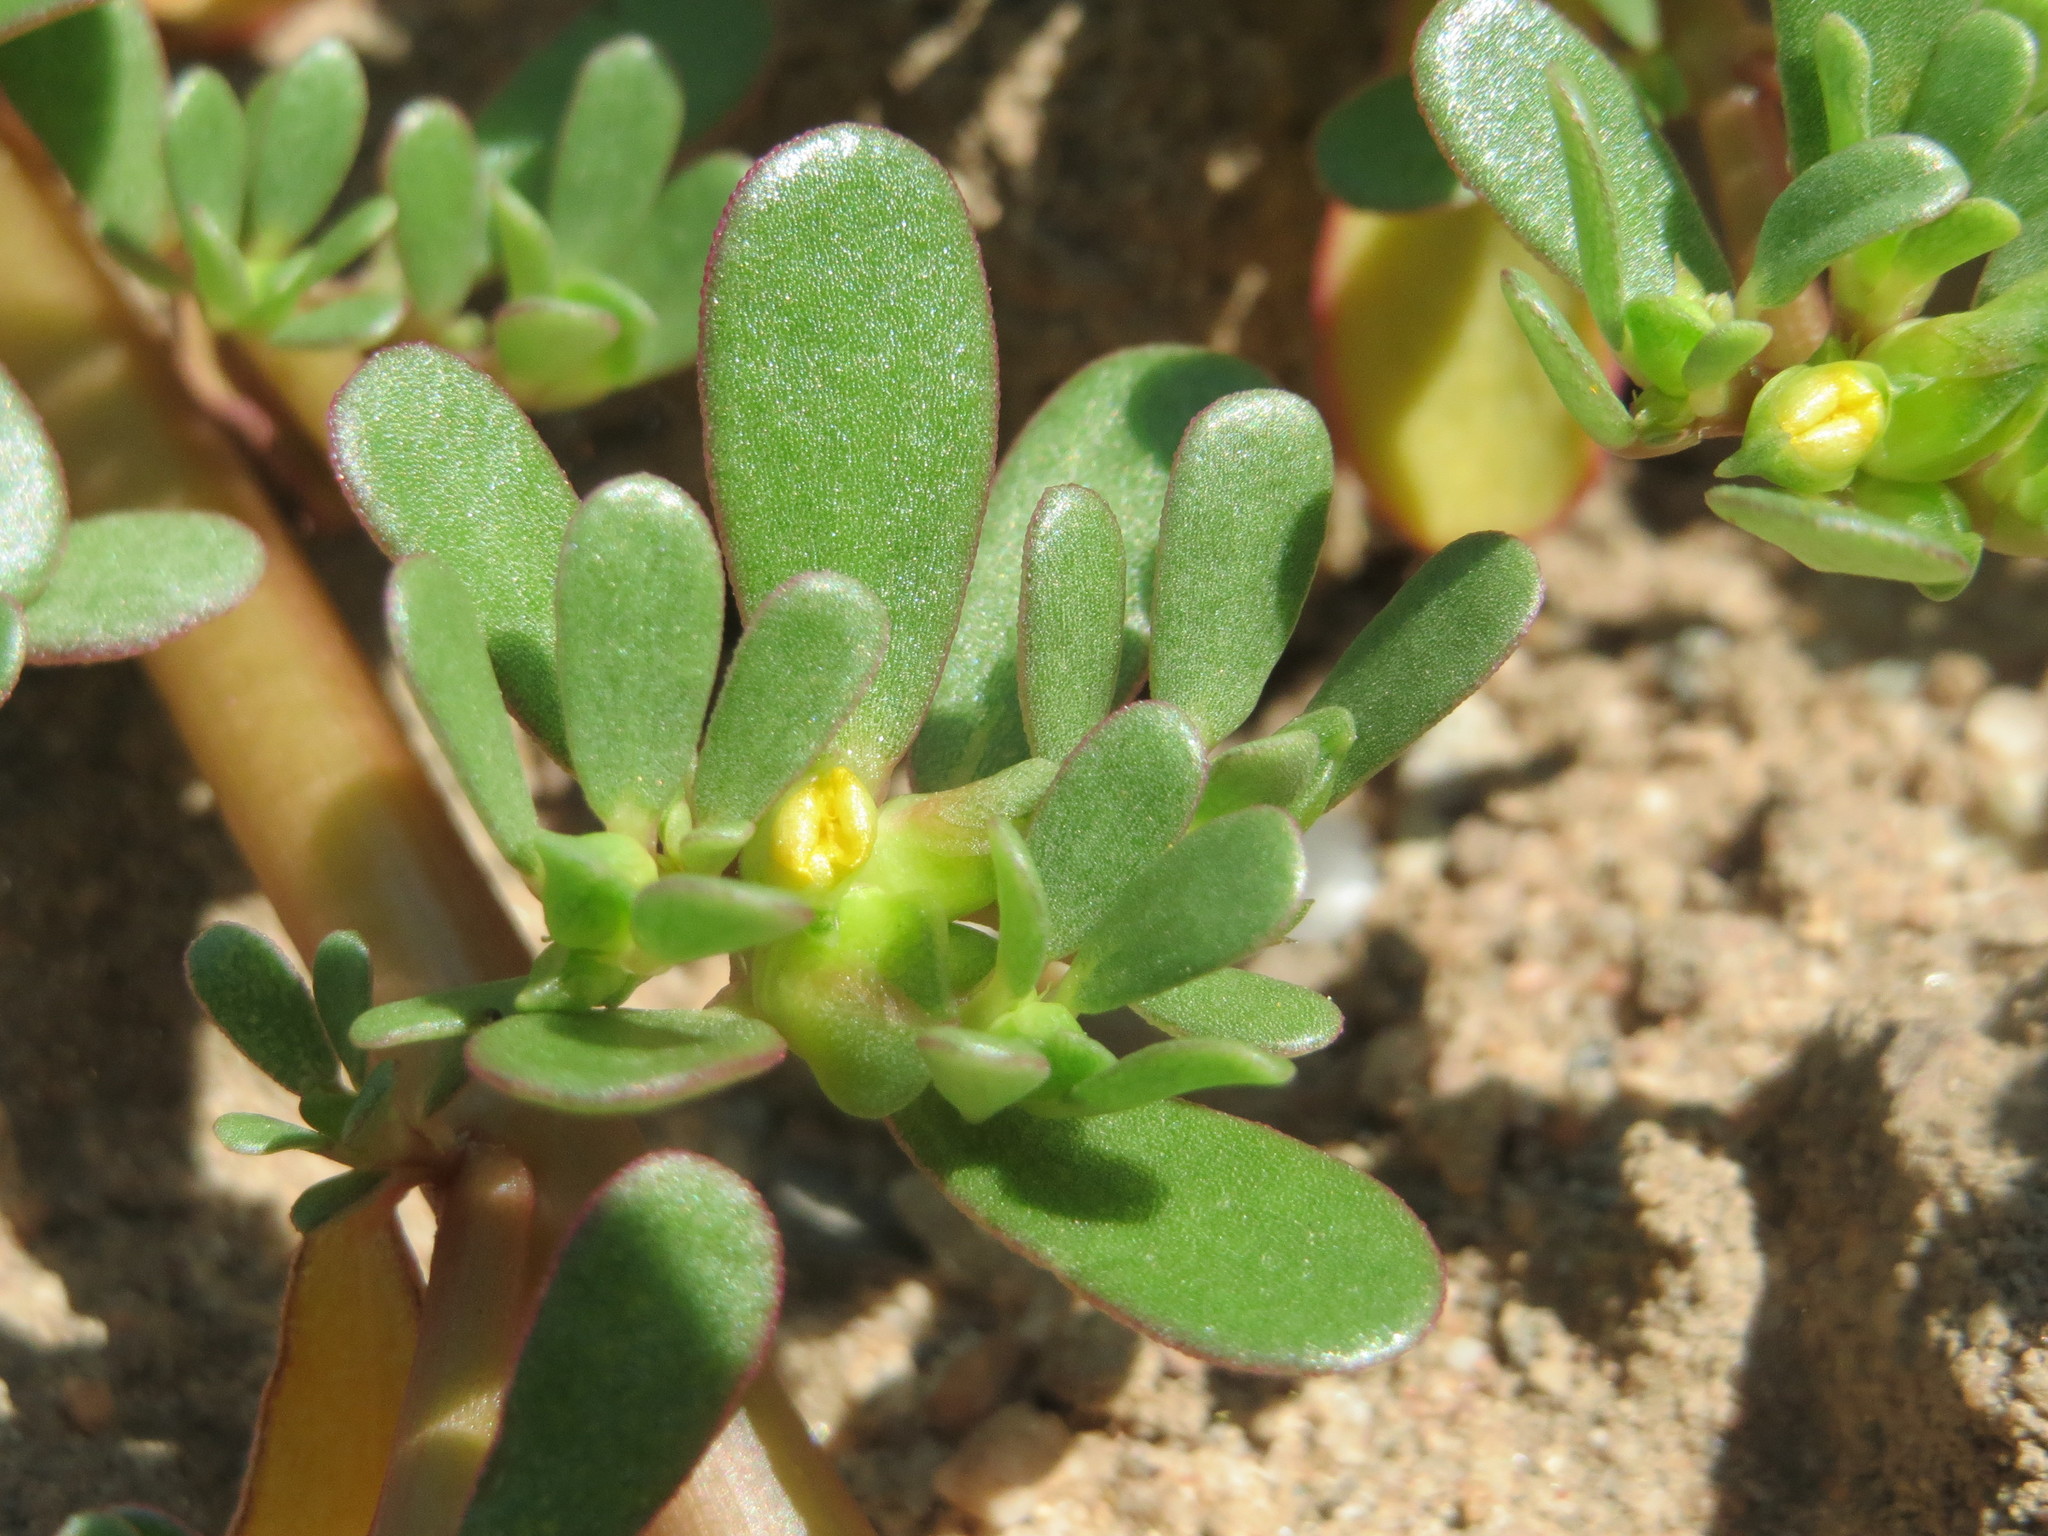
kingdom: Plantae
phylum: Tracheophyta
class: Magnoliopsida
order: Caryophyllales
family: Portulacaceae
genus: Portulaca
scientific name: Portulaca oleracea
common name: Common purslane
